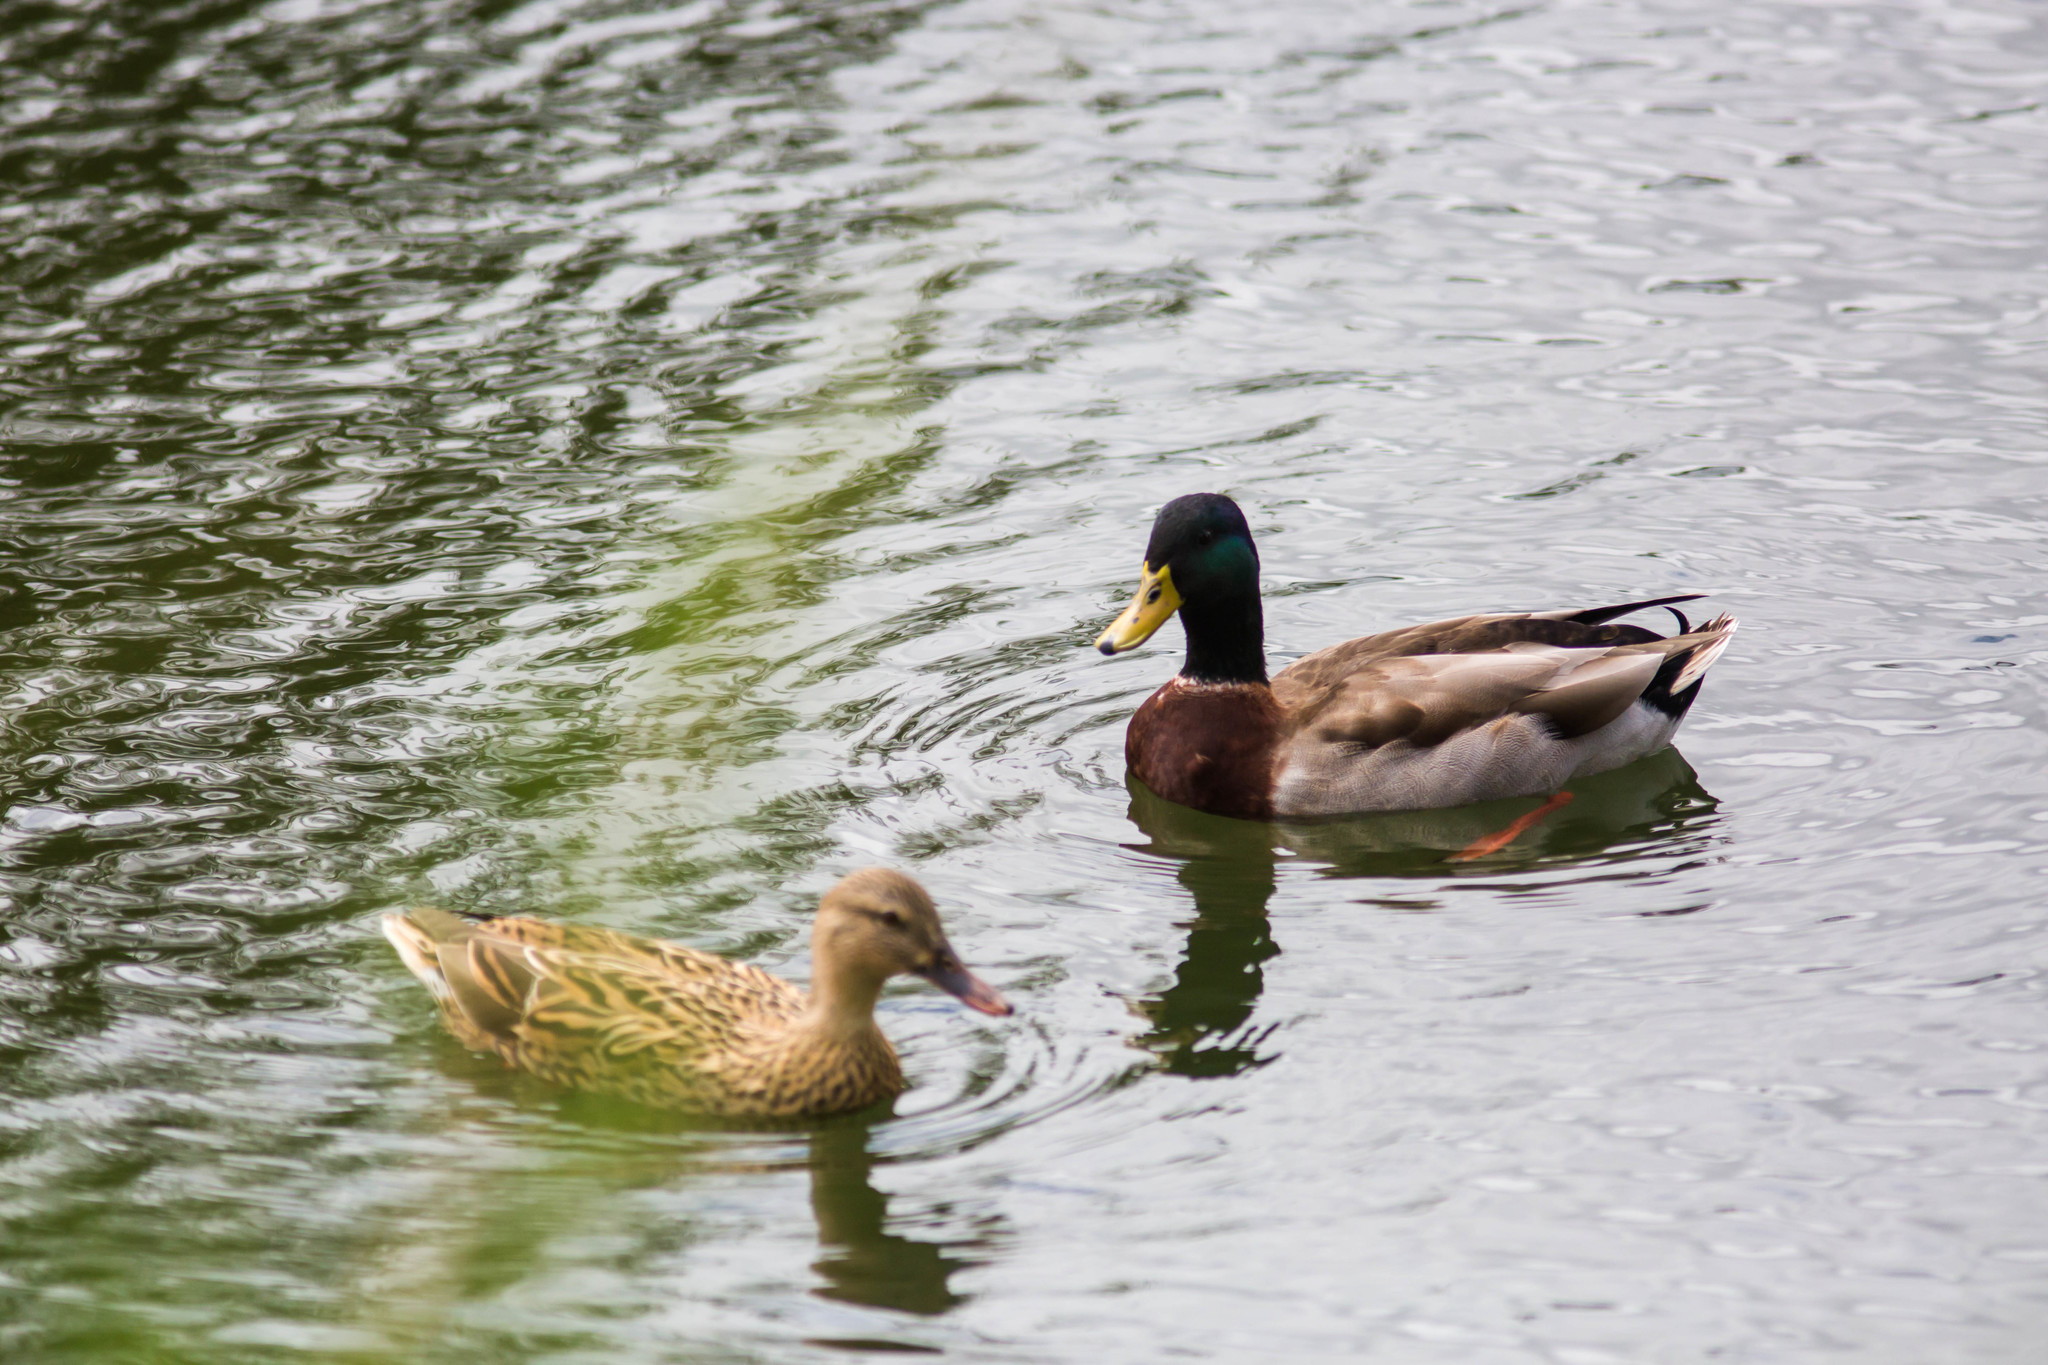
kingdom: Animalia
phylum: Chordata
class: Aves
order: Anseriformes
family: Anatidae
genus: Anas
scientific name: Anas platyrhynchos
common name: Mallard
